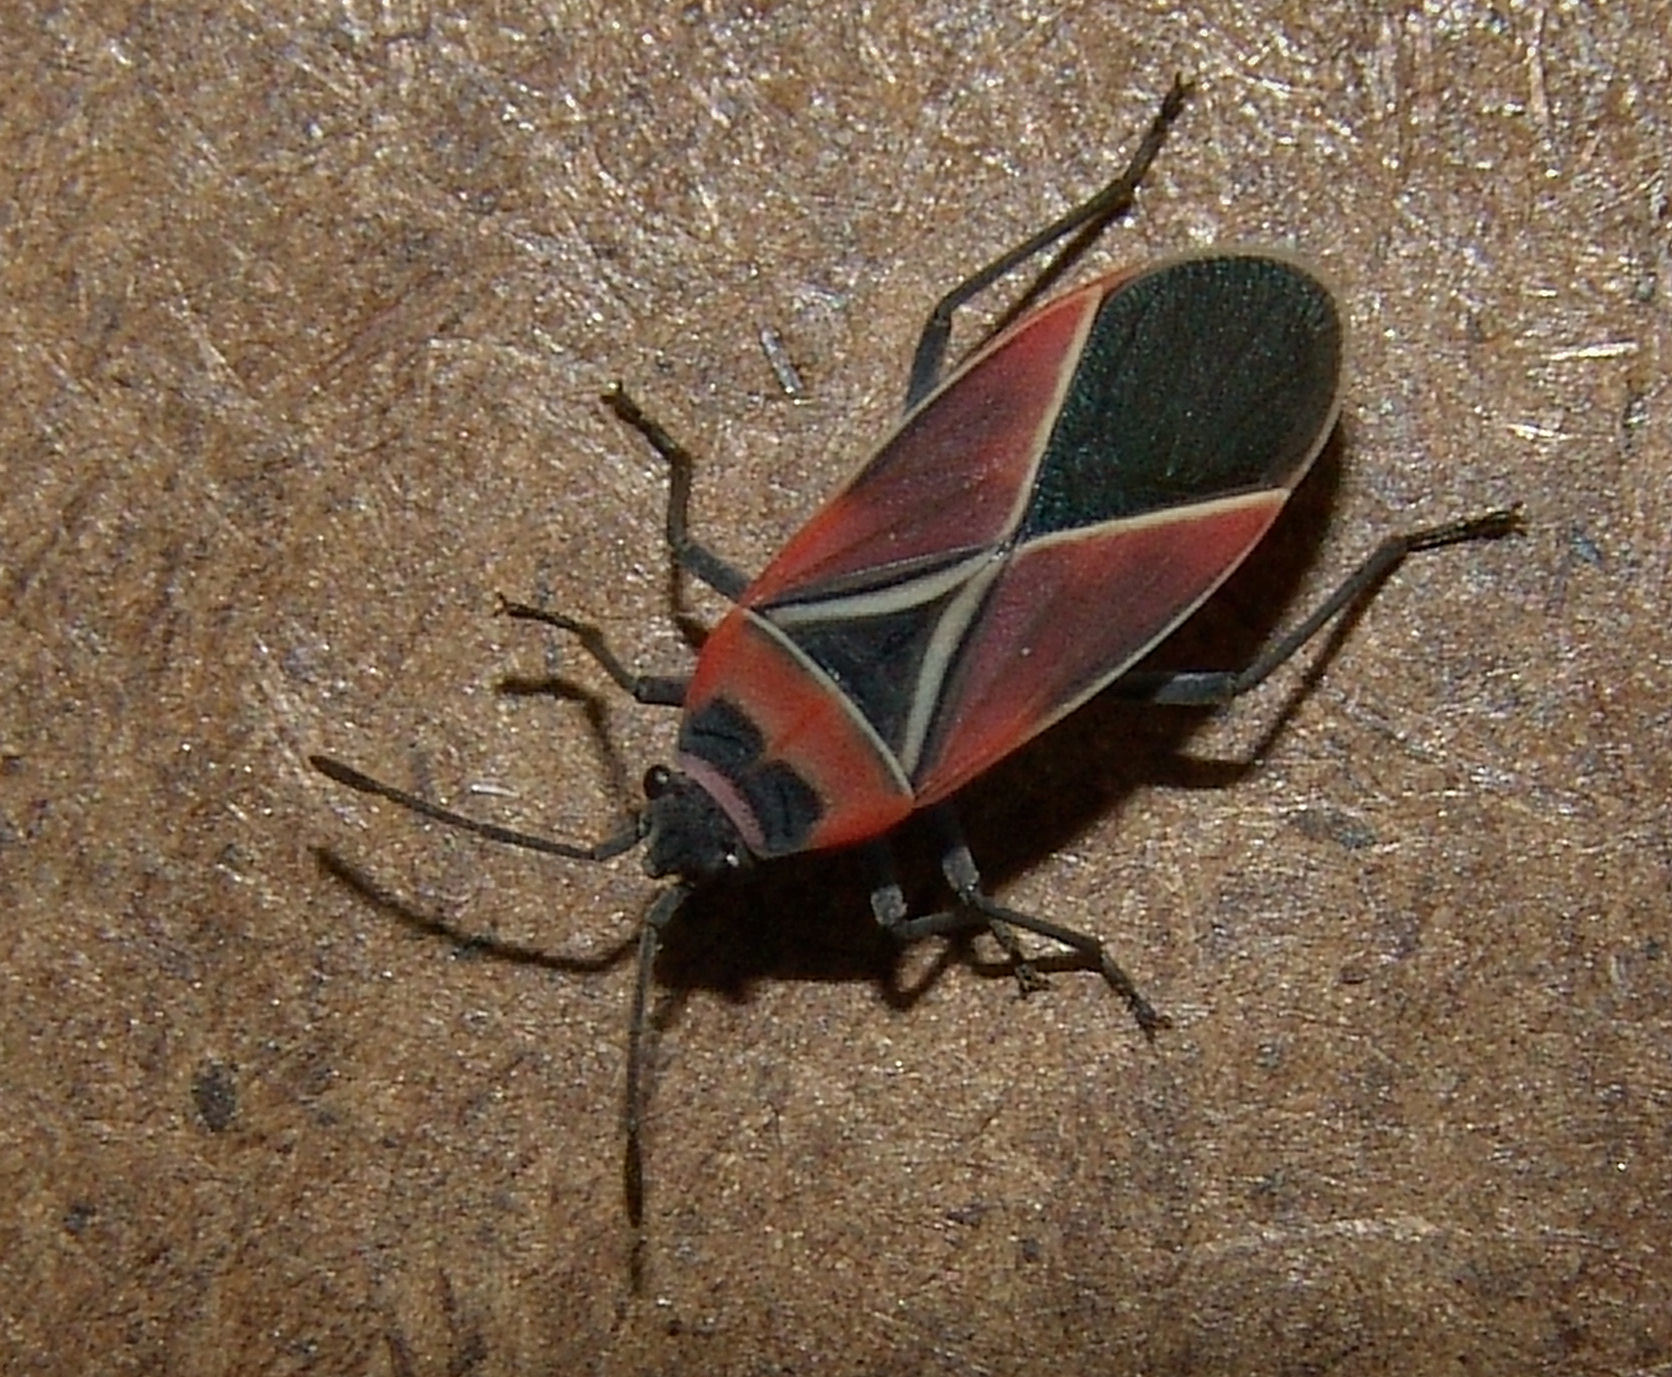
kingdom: Animalia
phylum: Arthropoda
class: Insecta
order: Hemiptera
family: Lygaeidae
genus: Neacoryphus
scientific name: Neacoryphus bicrucis
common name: Lygaeid bug
